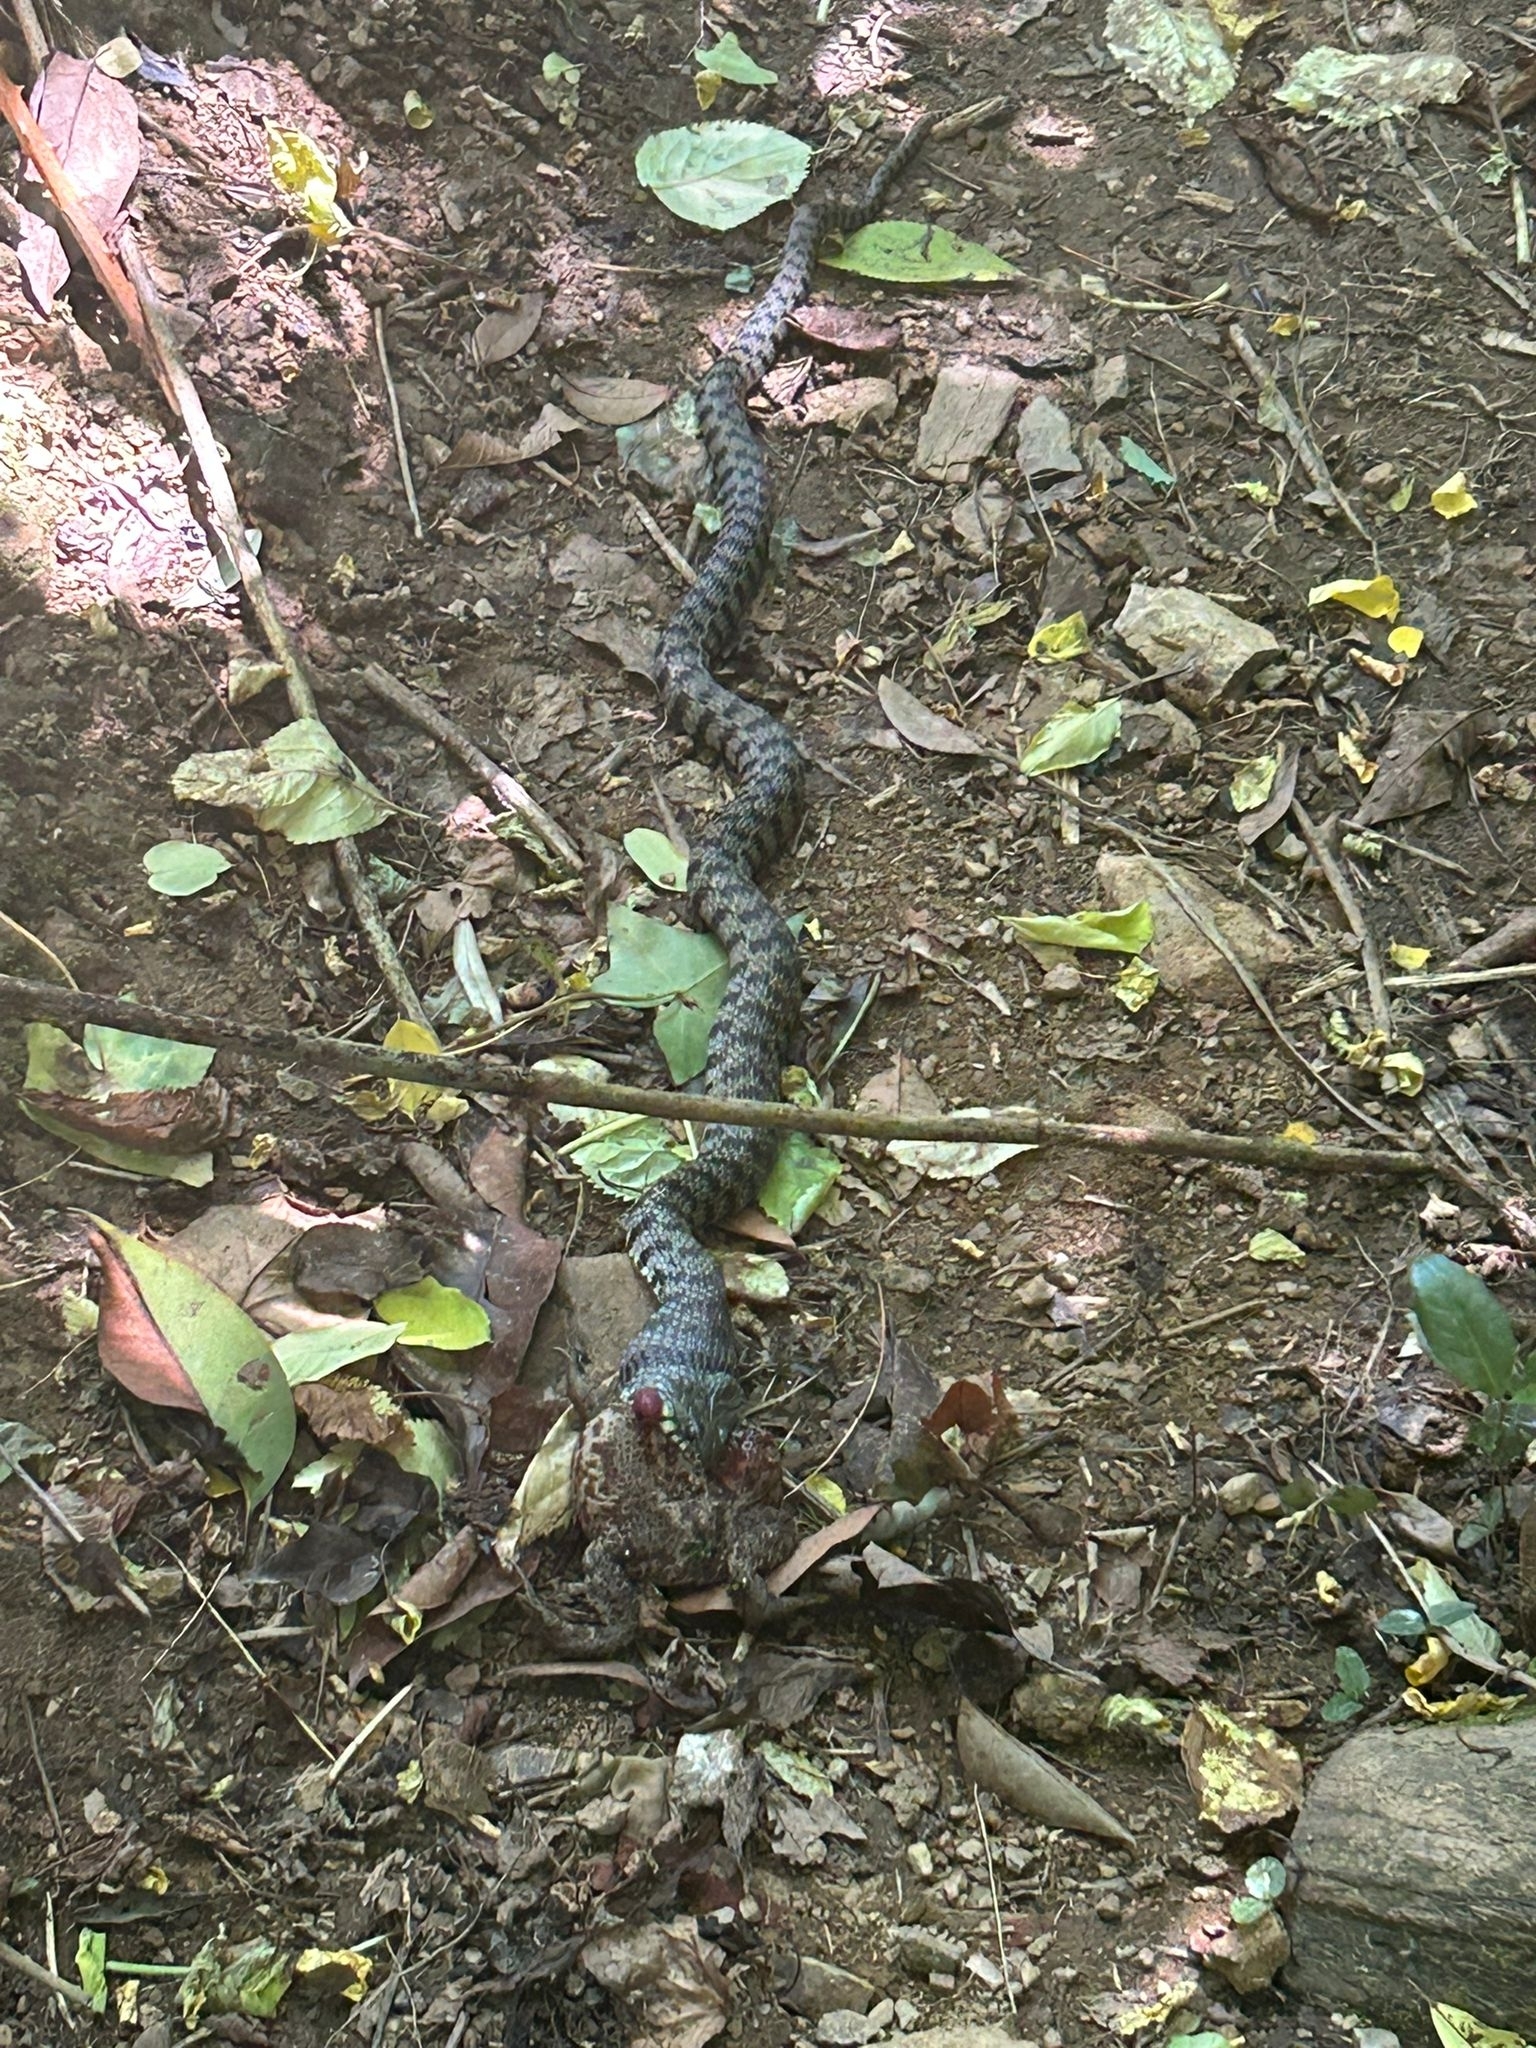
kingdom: Animalia
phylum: Chordata
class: Amphibia
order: Anura
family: Bufonidae
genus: Bufo
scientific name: Bufo bufo
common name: Common toad
